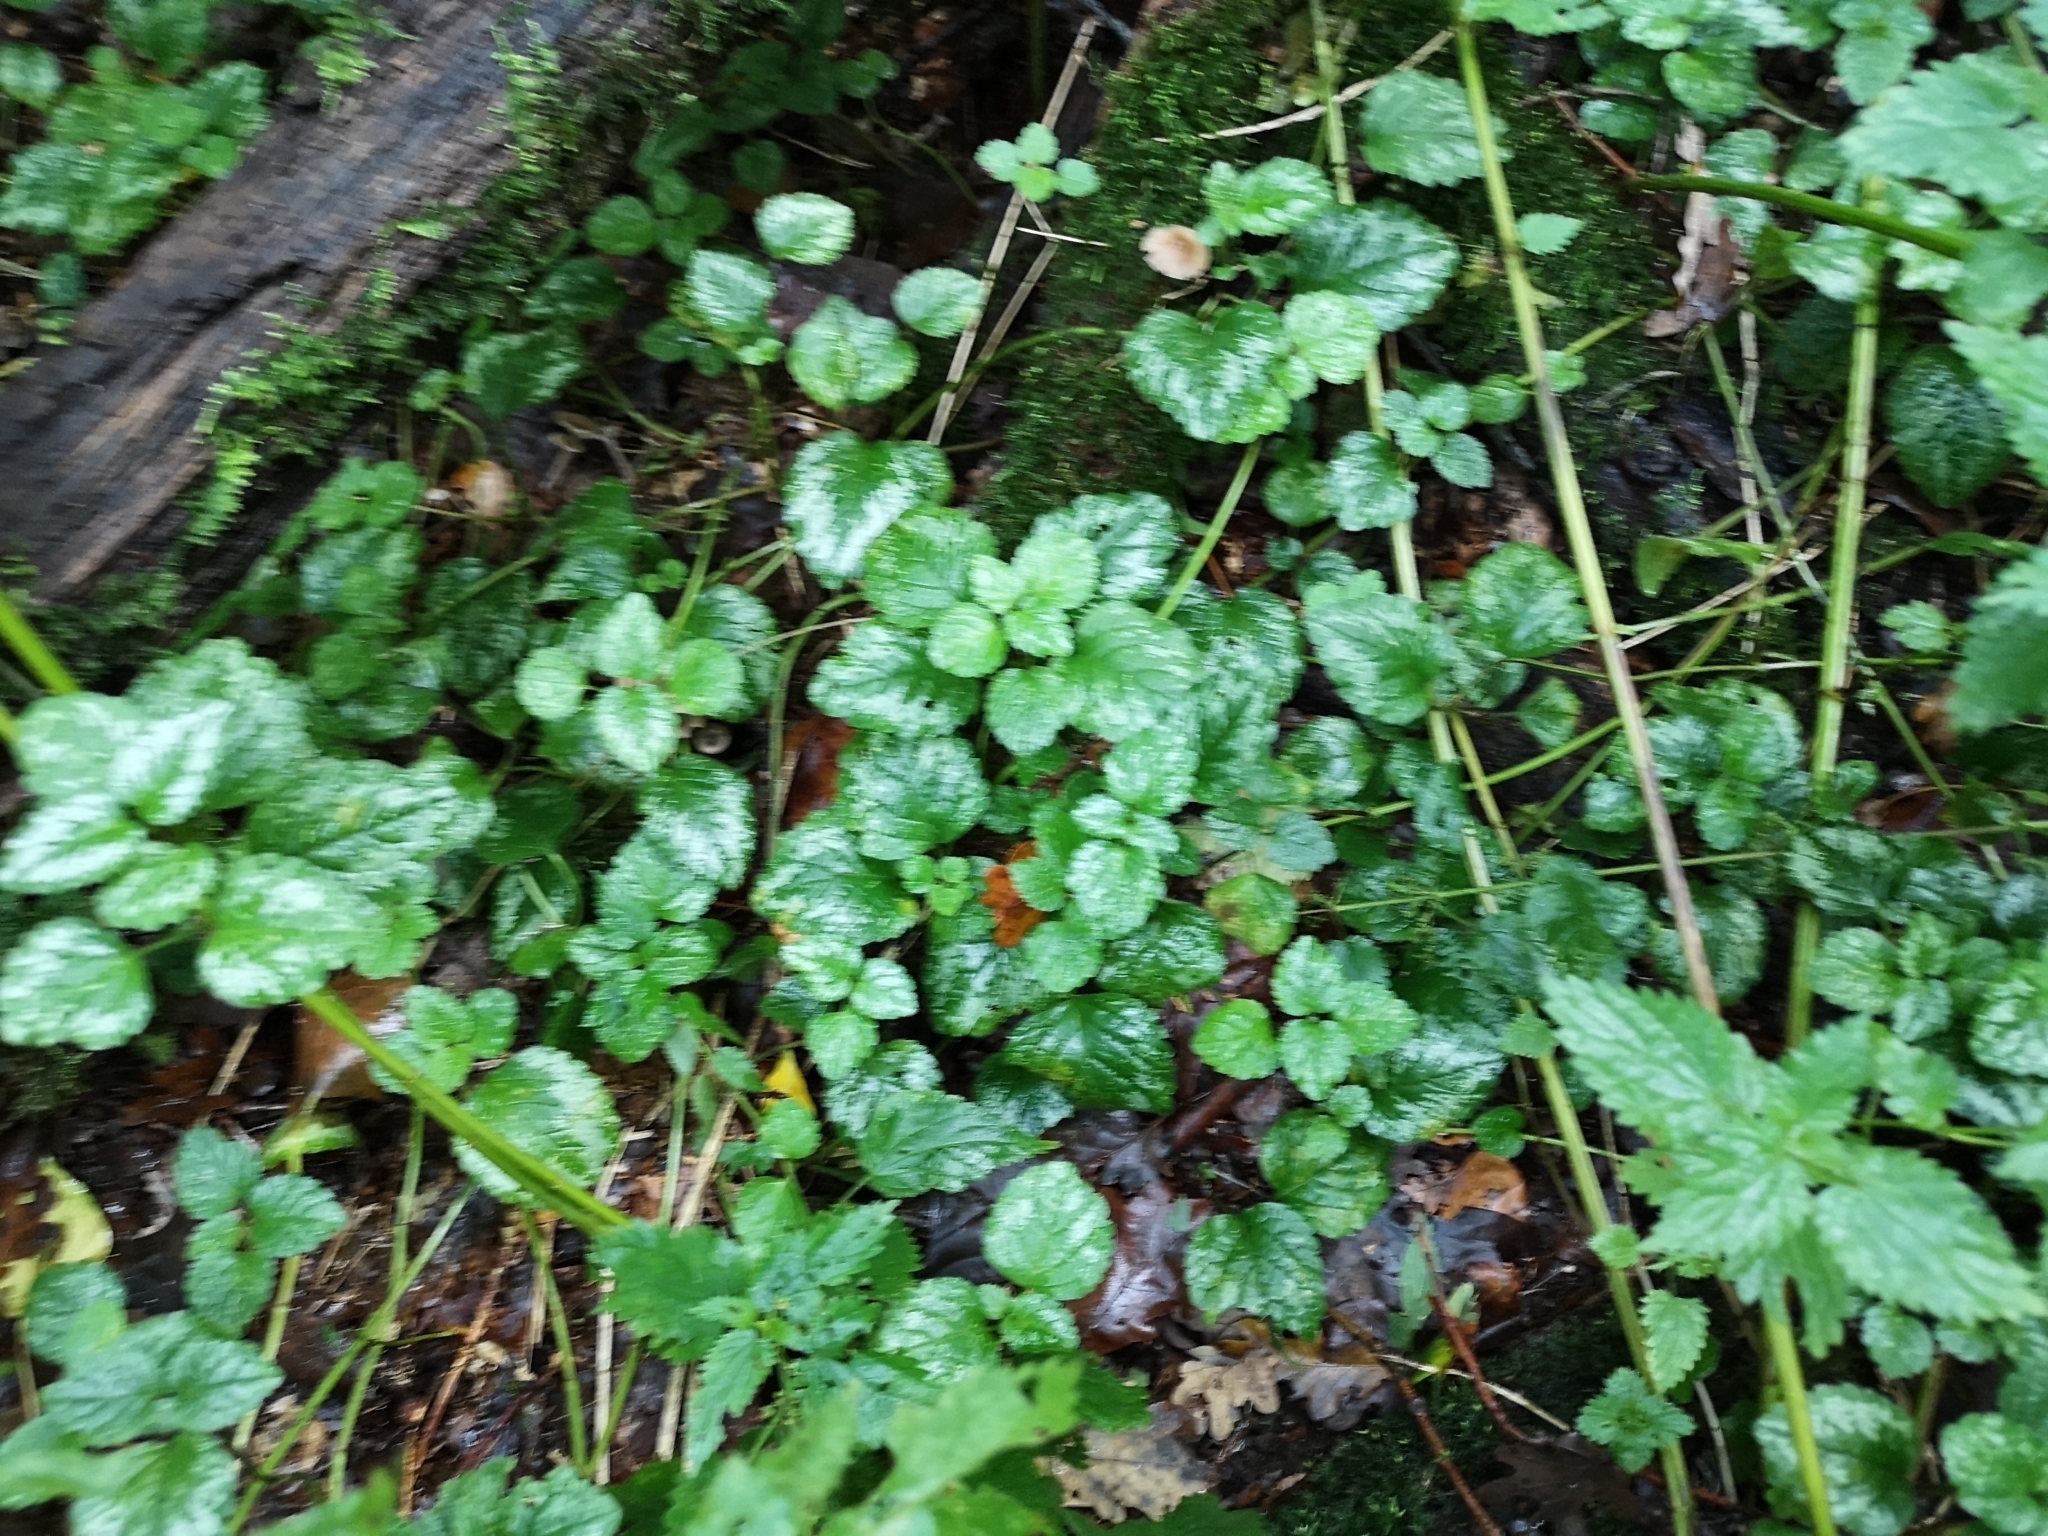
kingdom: Plantae
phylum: Tracheophyta
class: Magnoliopsida
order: Lamiales
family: Lamiaceae
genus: Lamium
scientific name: Lamium galeobdolon
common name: Yellow archangel
